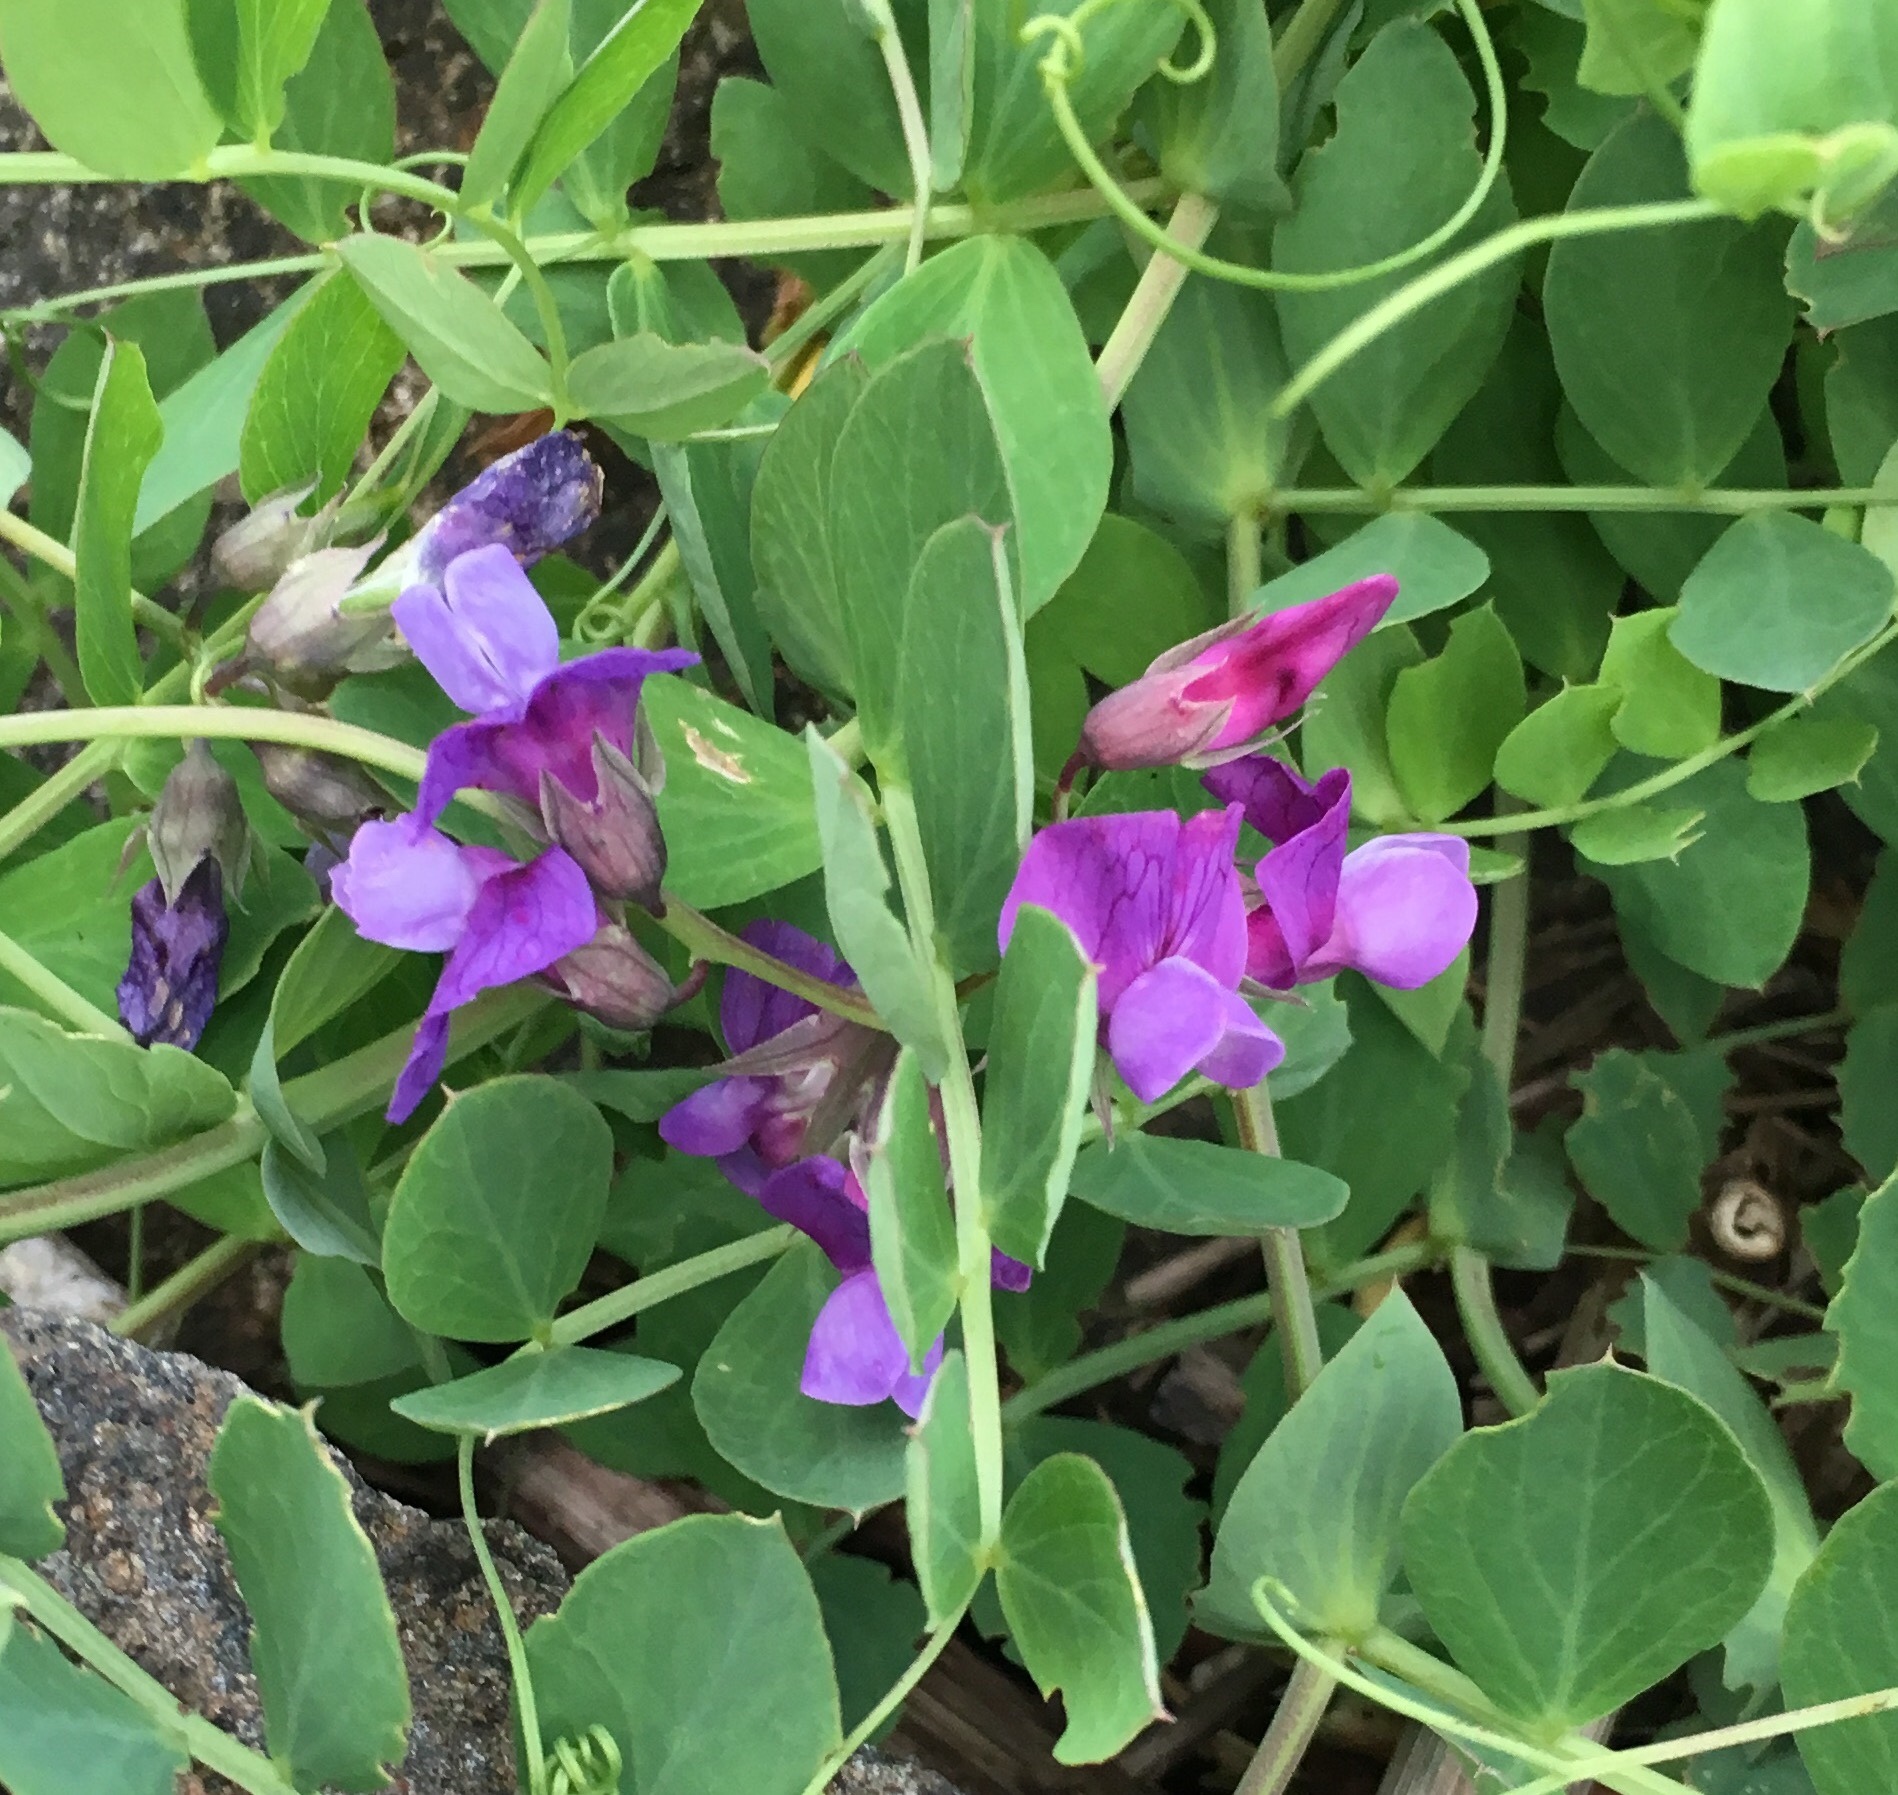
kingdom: Plantae
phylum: Tracheophyta
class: Magnoliopsida
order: Fabales
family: Fabaceae
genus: Lathyrus
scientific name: Lathyrus japonicus
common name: Sea pea
